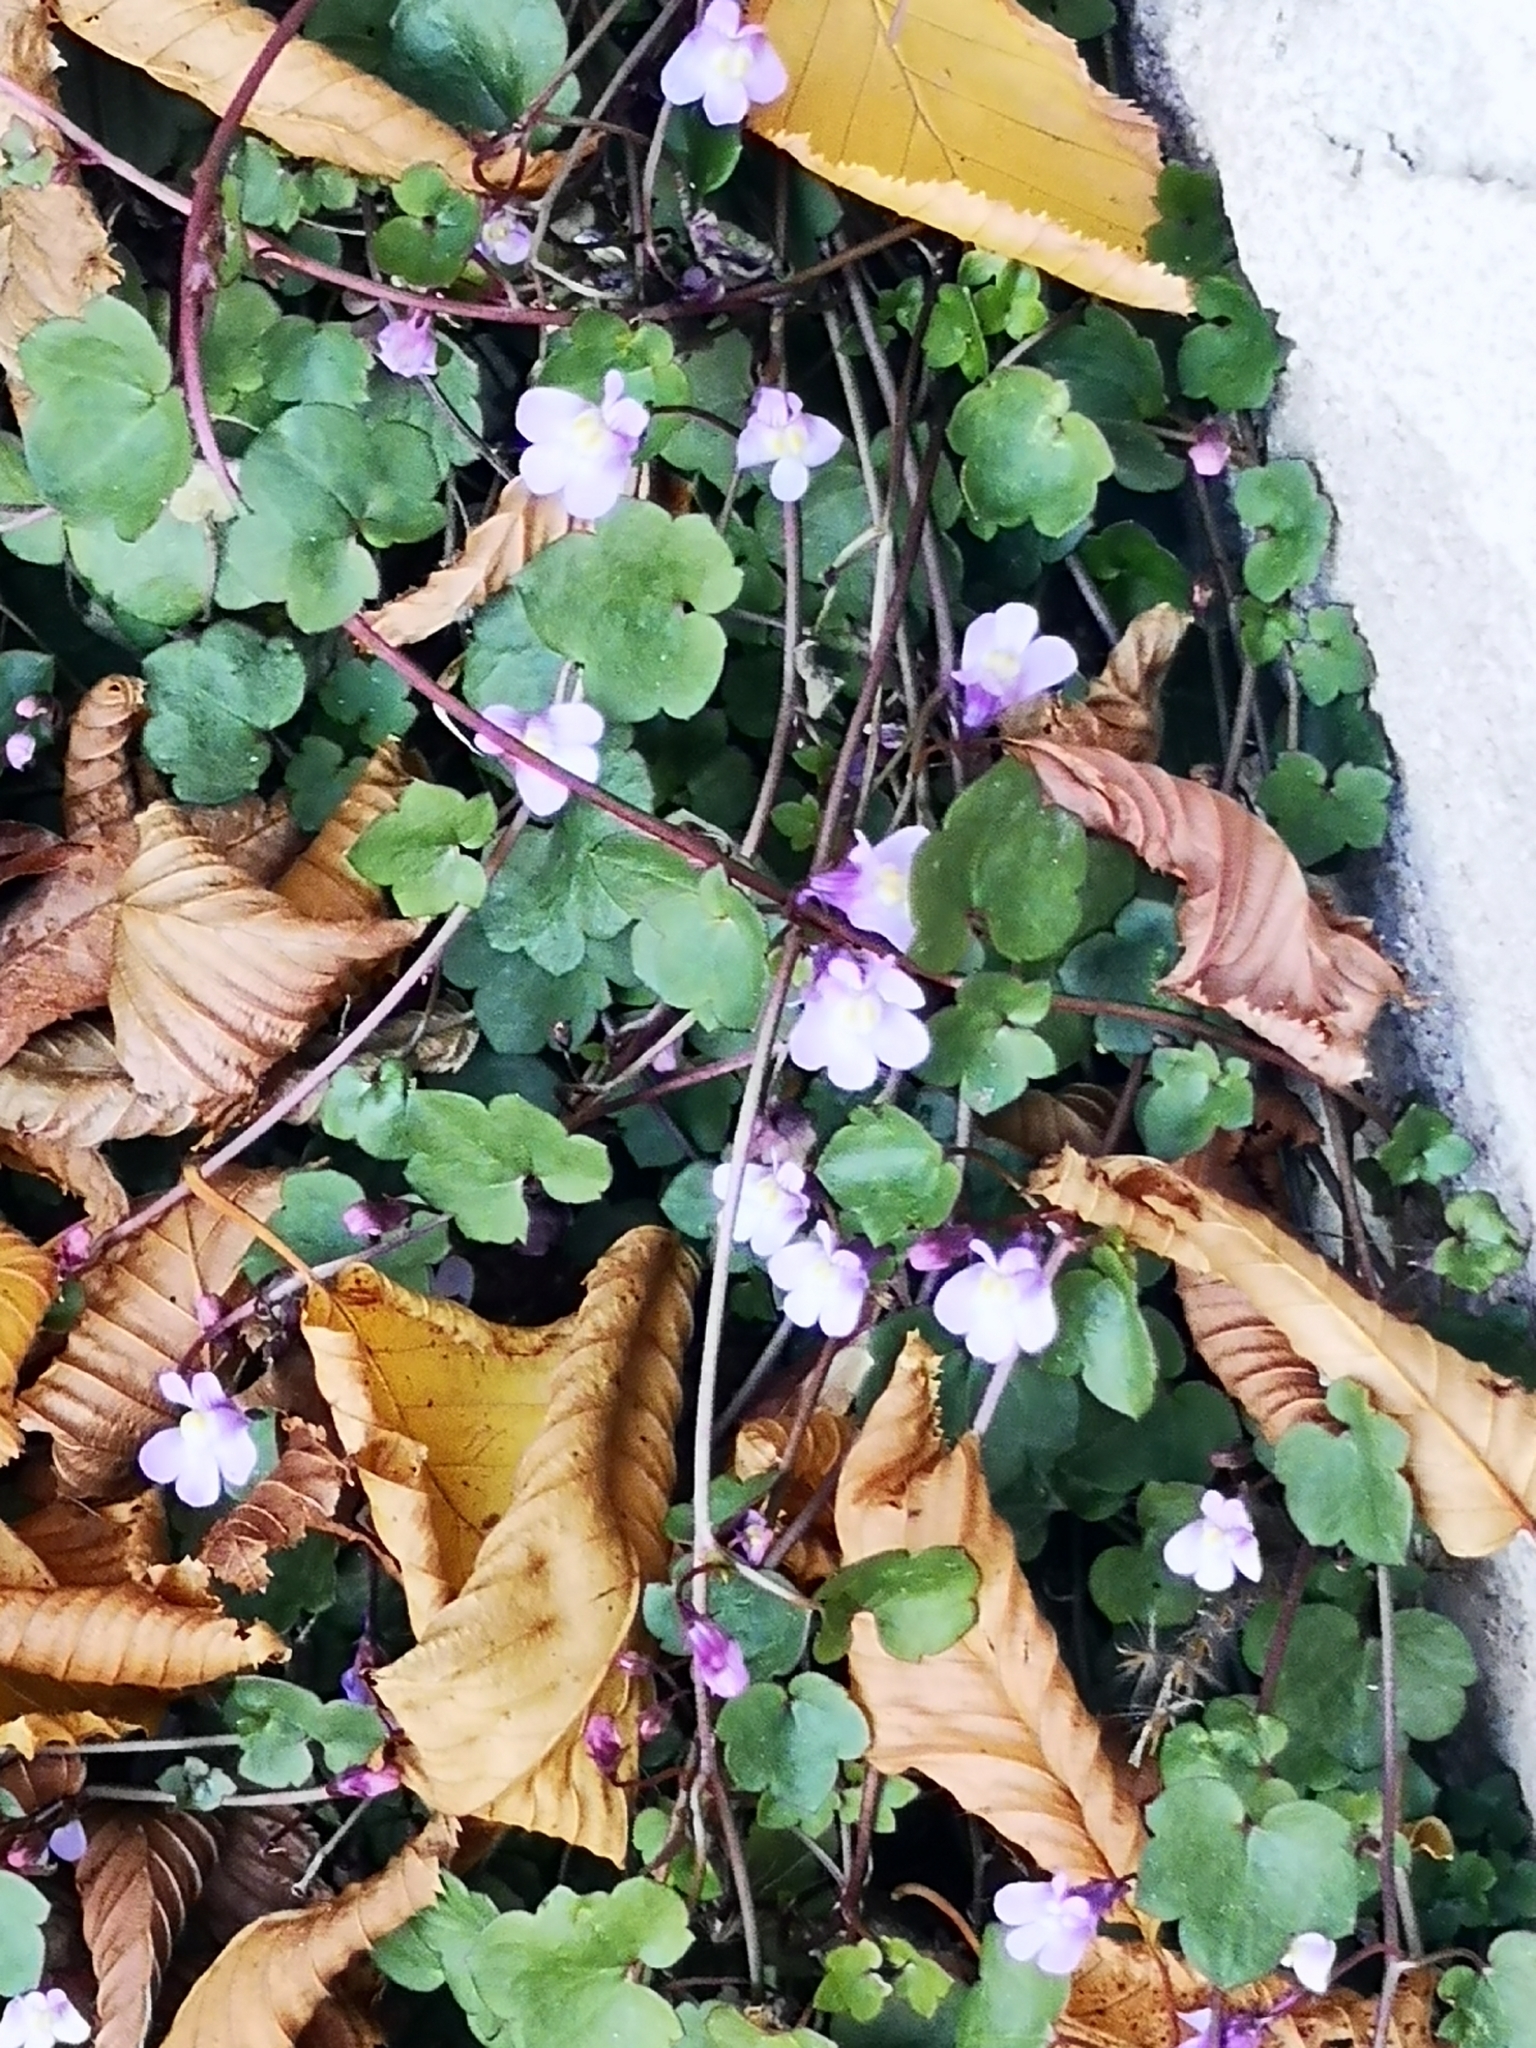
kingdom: Plantae
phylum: Tracheophyta
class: Magnoliopsida
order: Lamiales
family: Plantaginaceae
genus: Cymbalaria
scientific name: Cymbalaria muralis
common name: Ivy-leaved toadflax
